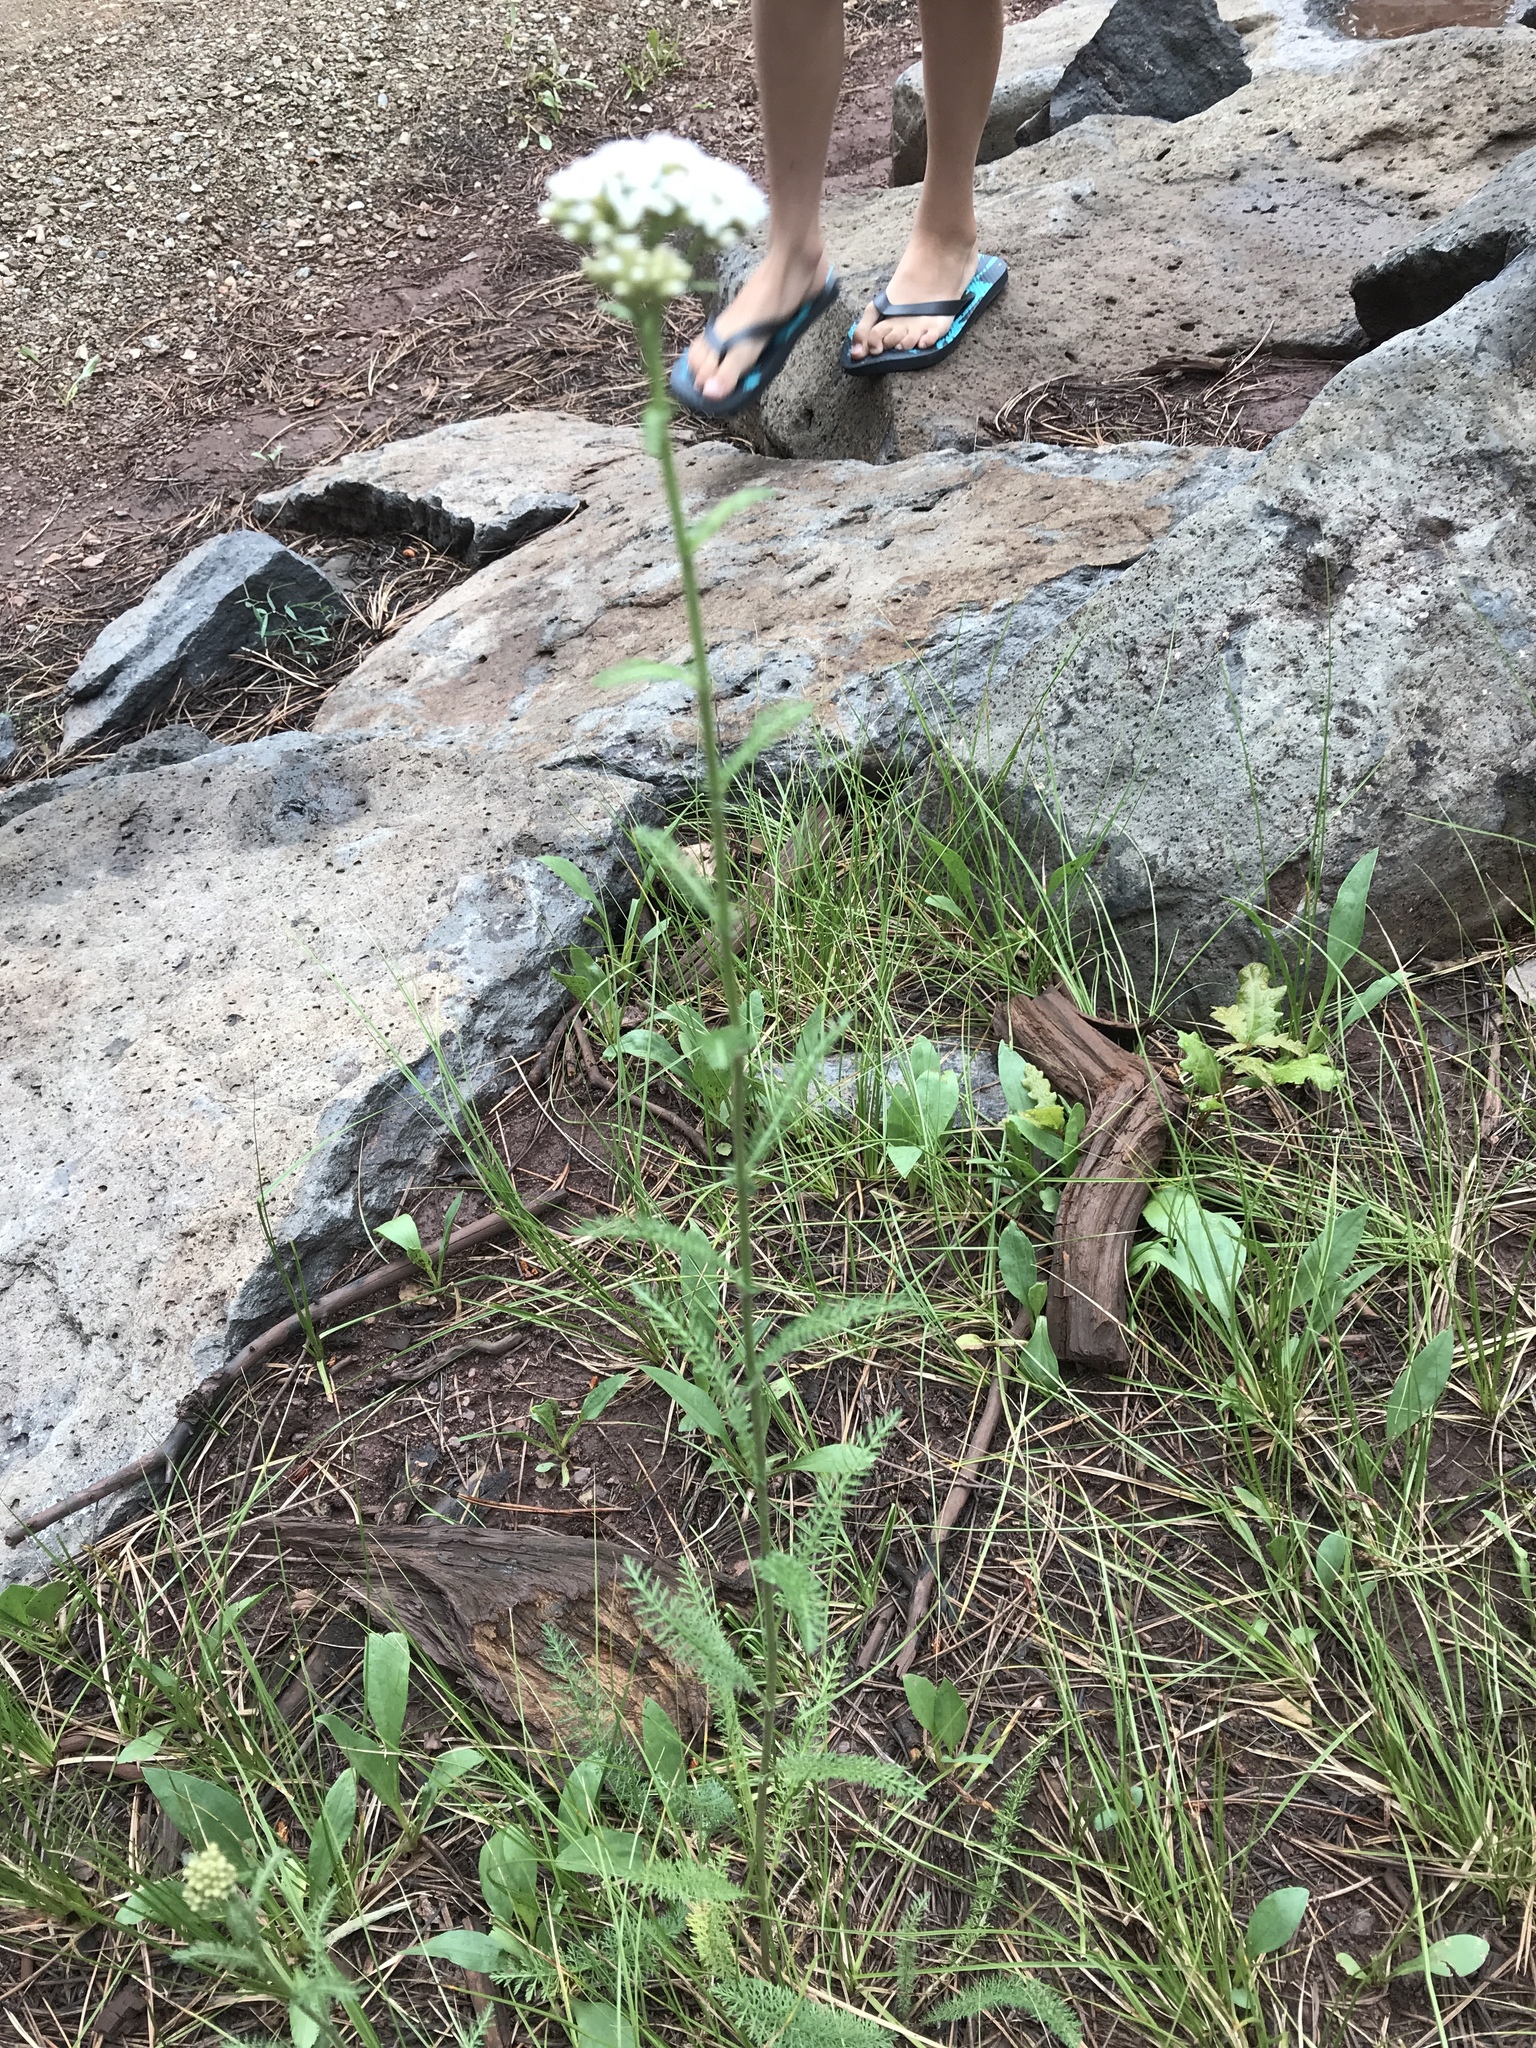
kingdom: Plantae
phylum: Tracheophyta
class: Magnoliopsida
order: Asterales
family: Asteraceae
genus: Achillea
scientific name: Achillea millefolium
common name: Yarrow
